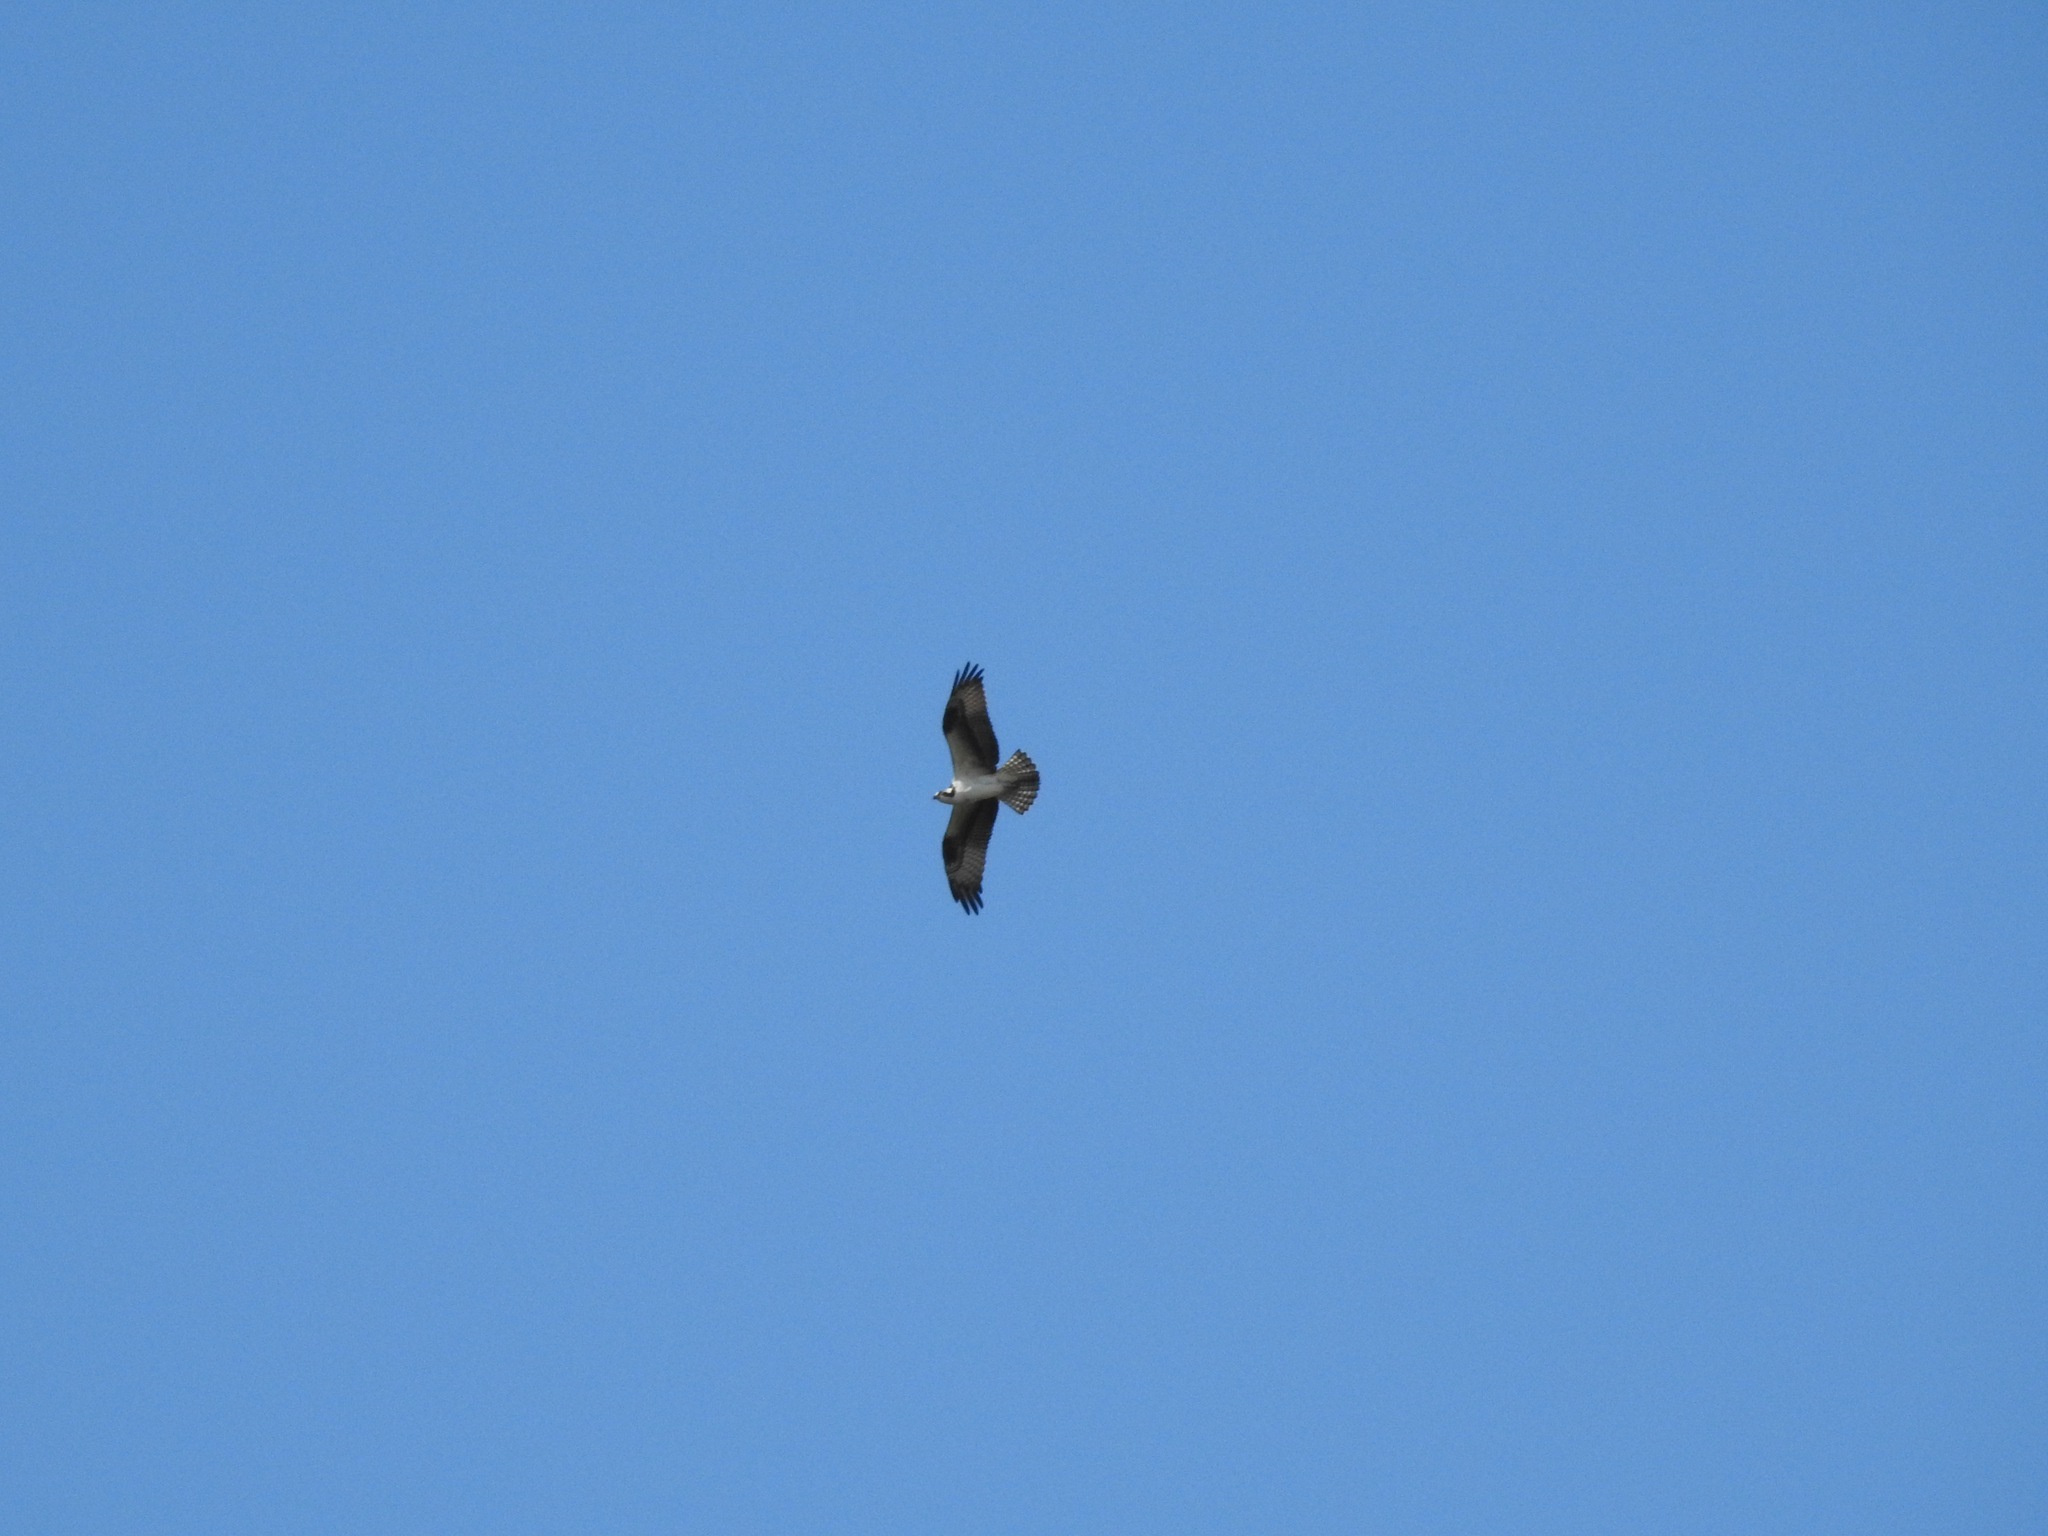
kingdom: Animalia
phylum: Chordata
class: Aves
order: Accipitriformes
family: Pandionidae
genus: Pandion
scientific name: Pandion haliaetus
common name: Osprey
